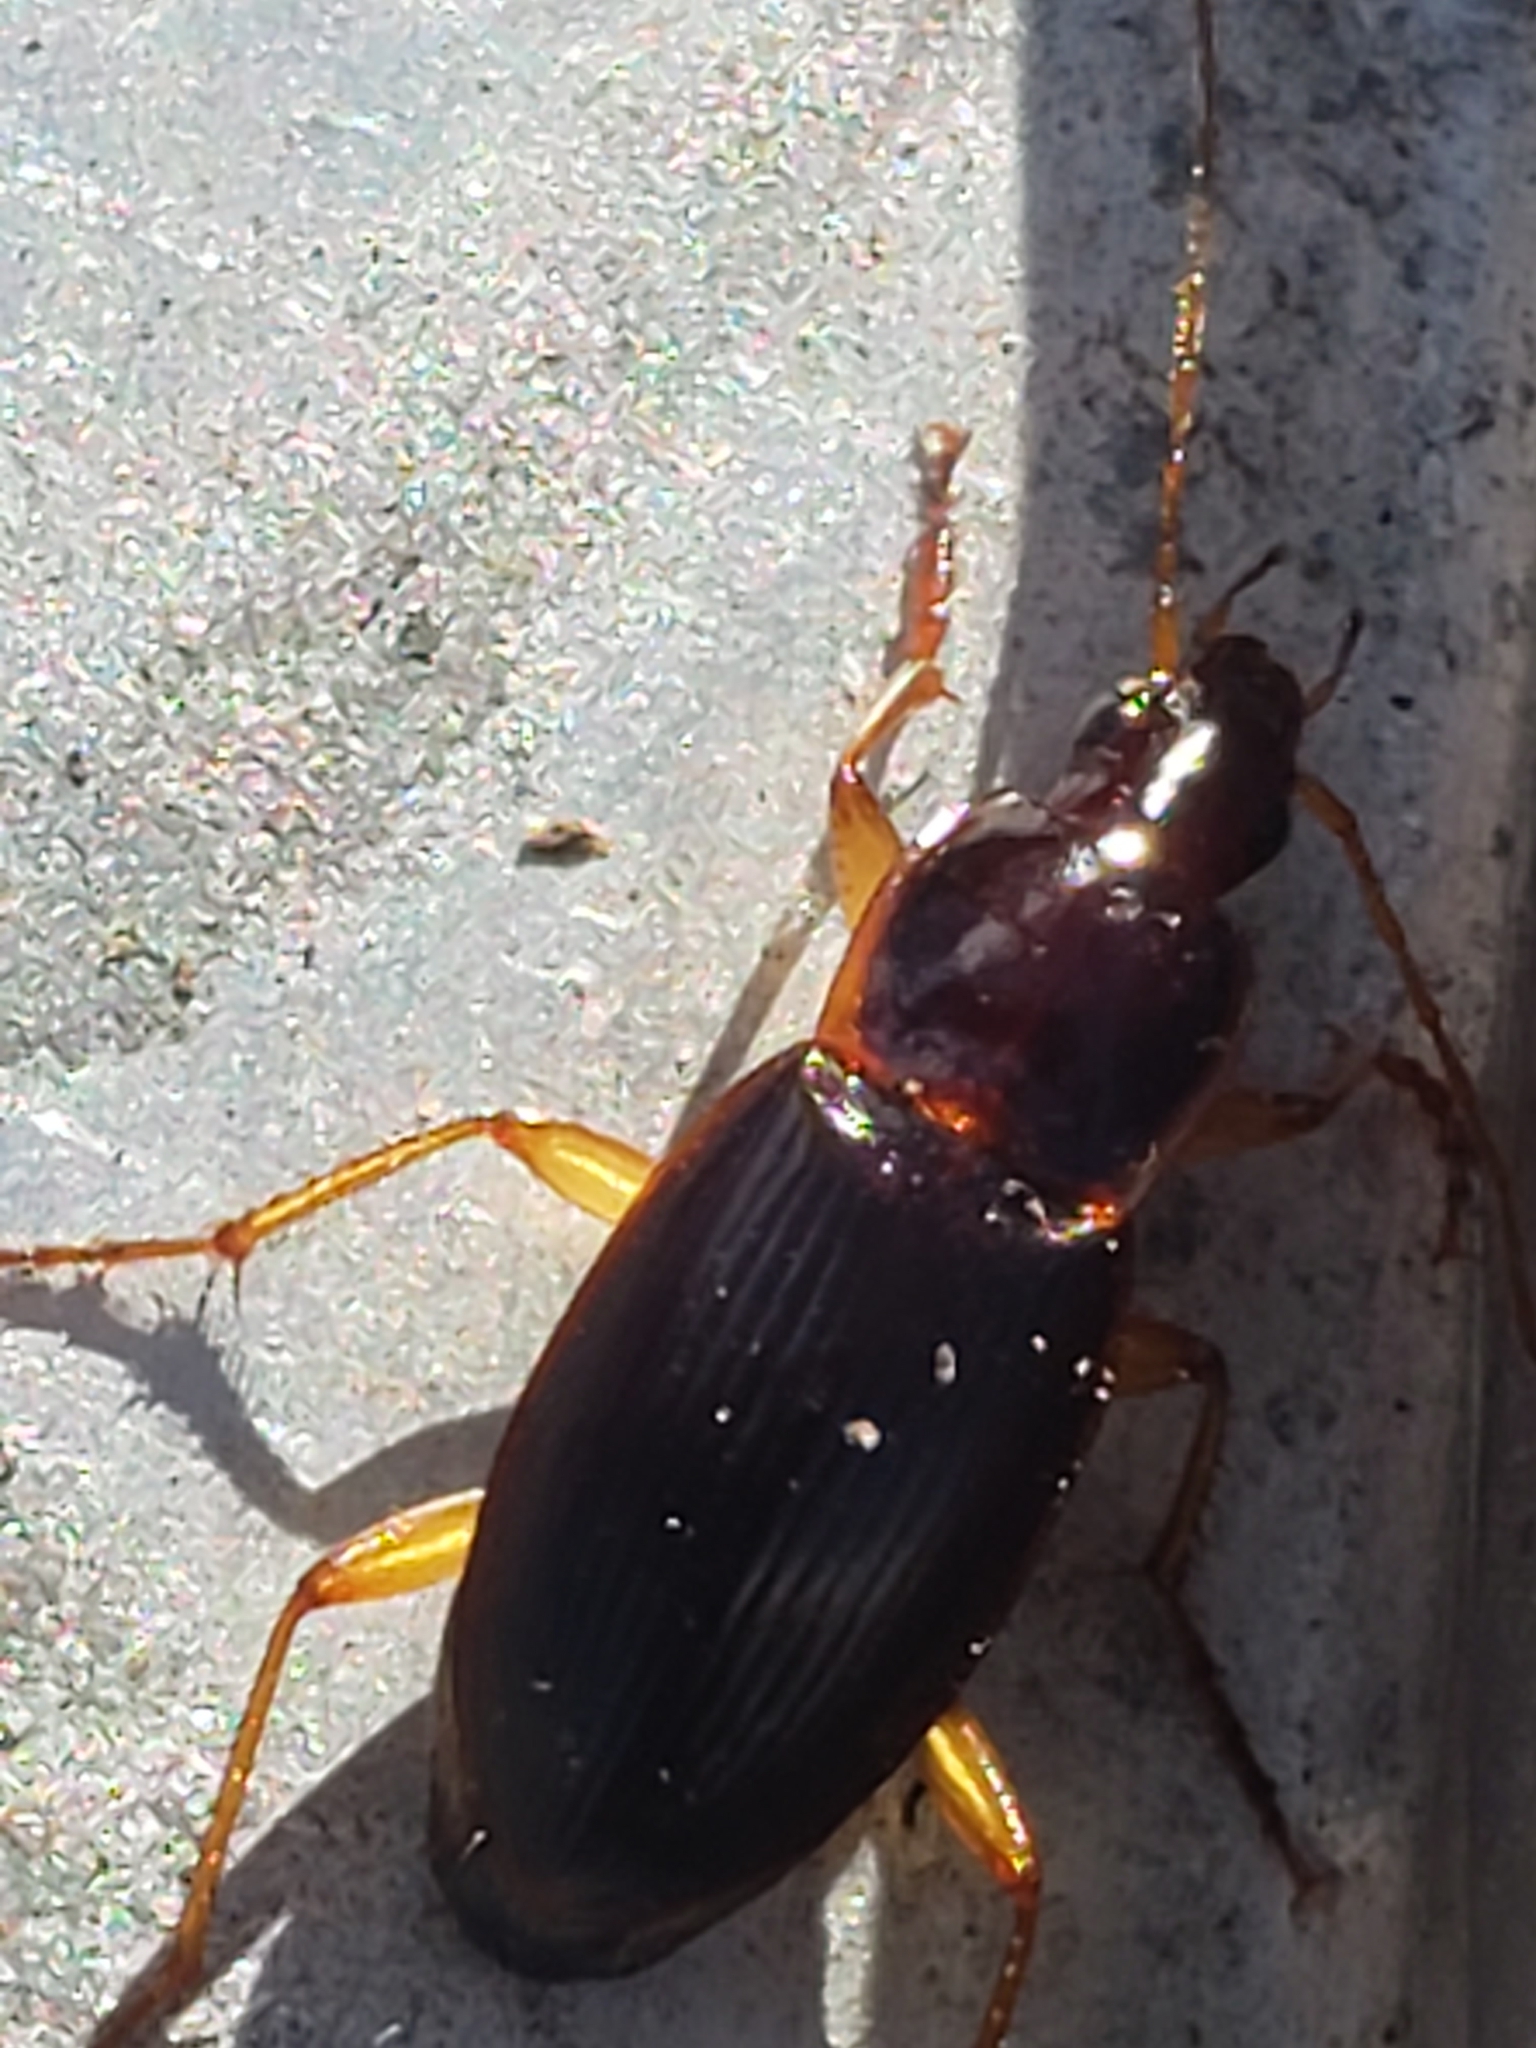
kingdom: Animalia
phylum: Arthropoda
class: Insecta
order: Coleoptera
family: Carabidae
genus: Calathus
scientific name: Calathus opaculus
